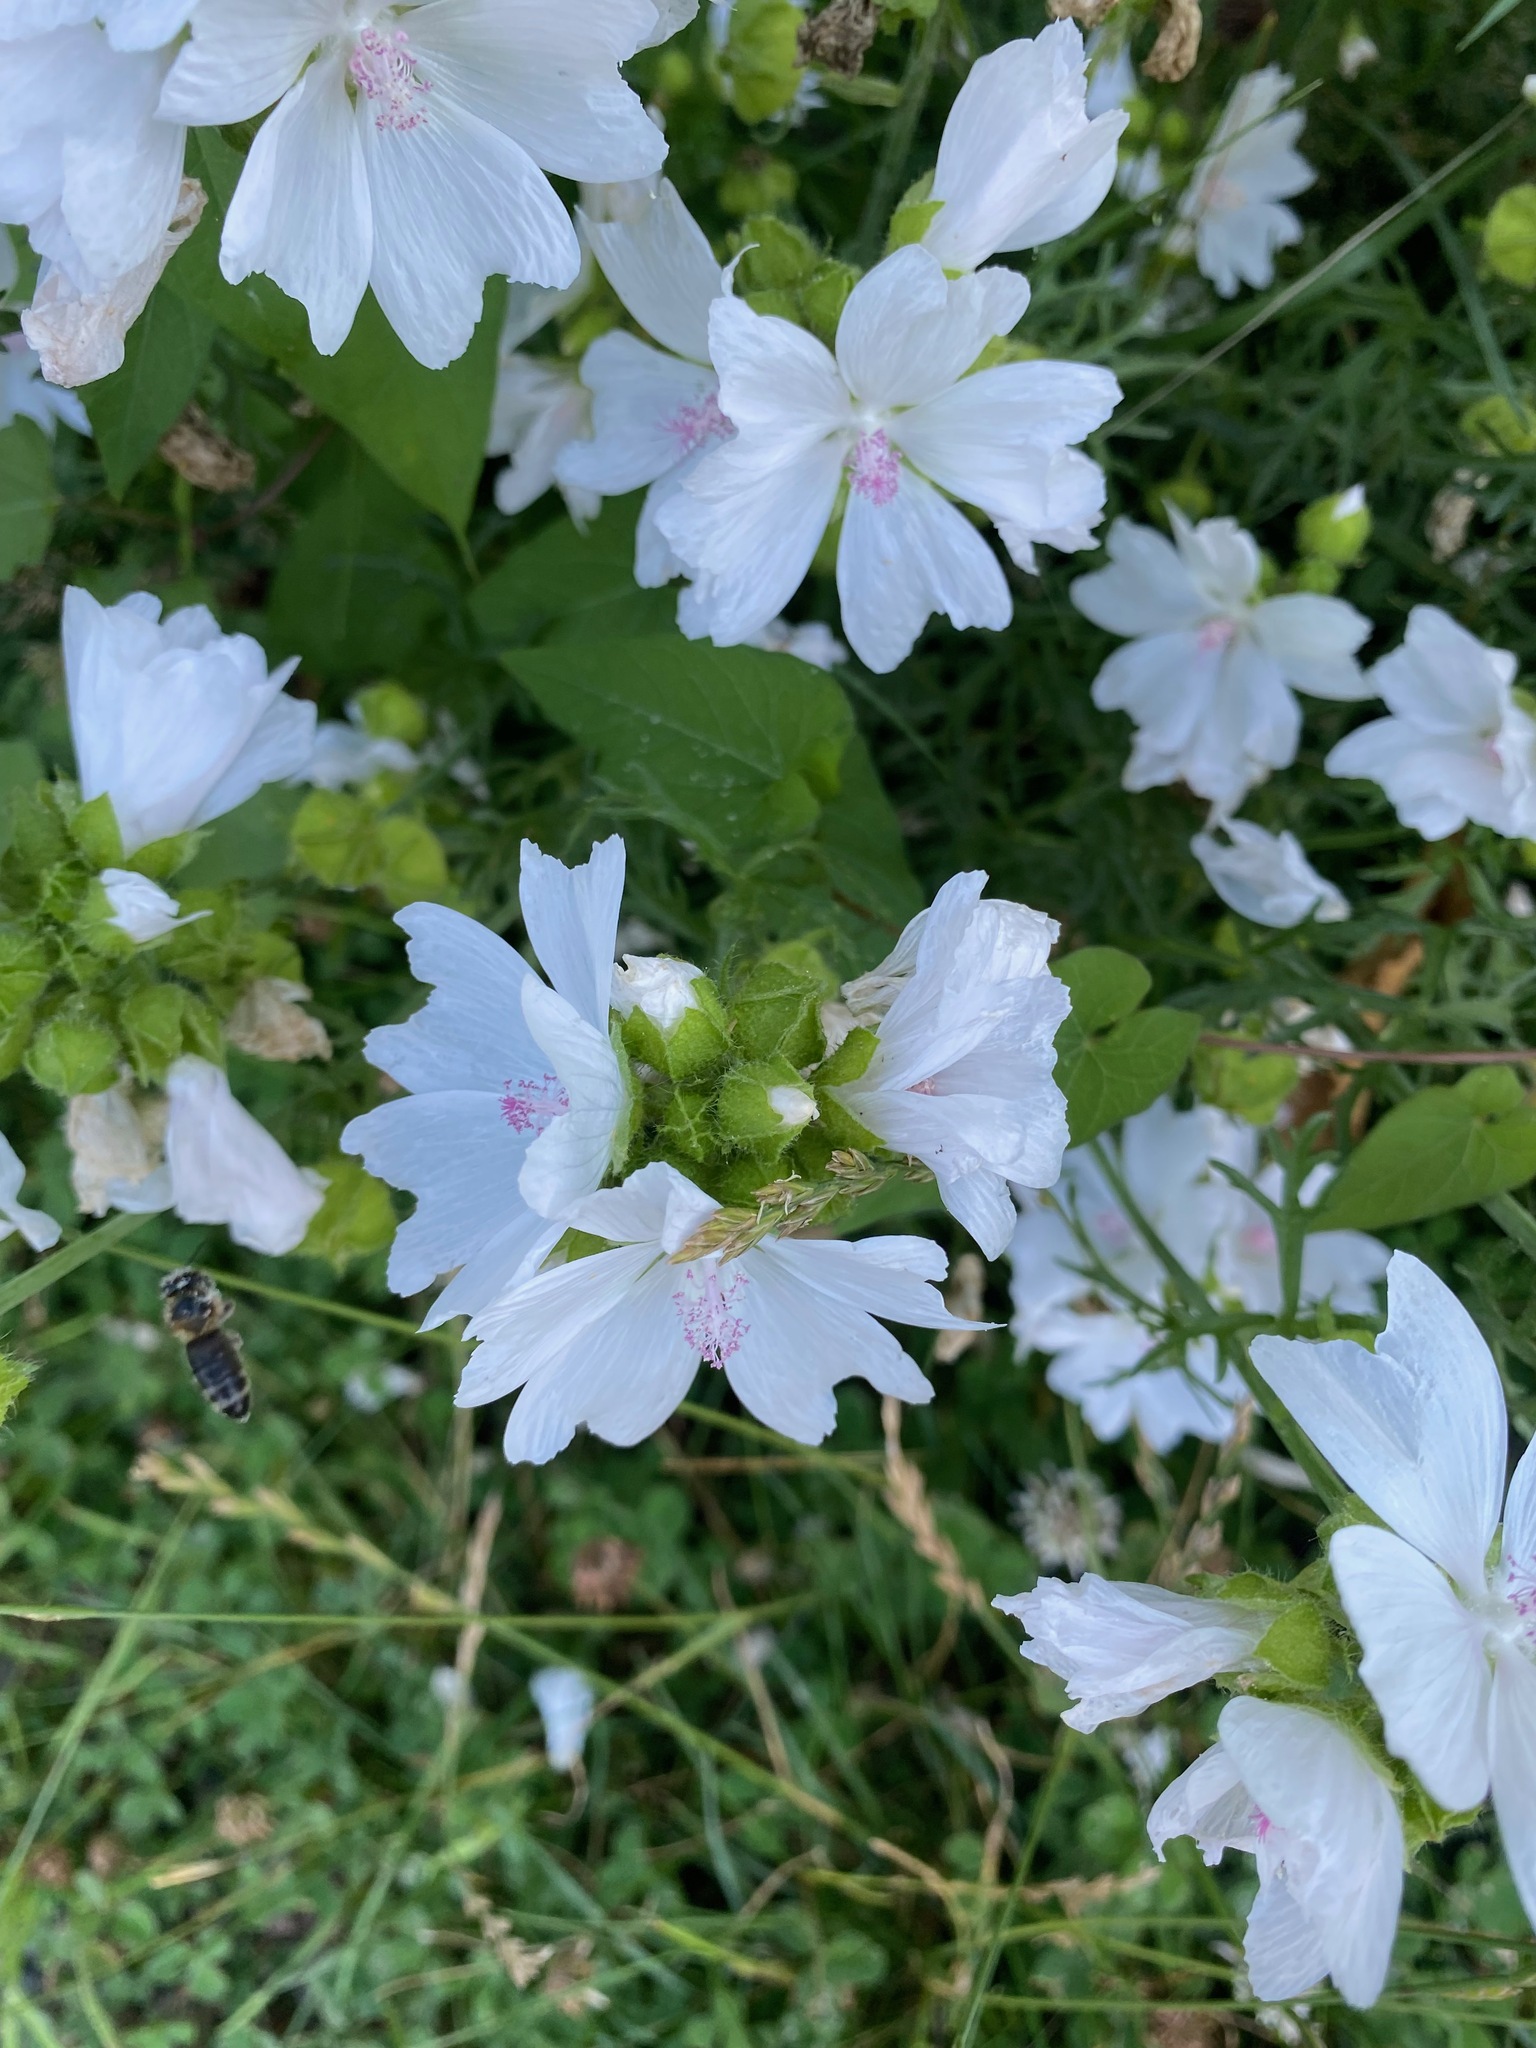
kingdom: Plantae
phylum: Tracheophyta
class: Magnoliopsida
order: Malvales
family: Malvaceae
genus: Malva
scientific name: Malva moschata
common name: Musk mallow
